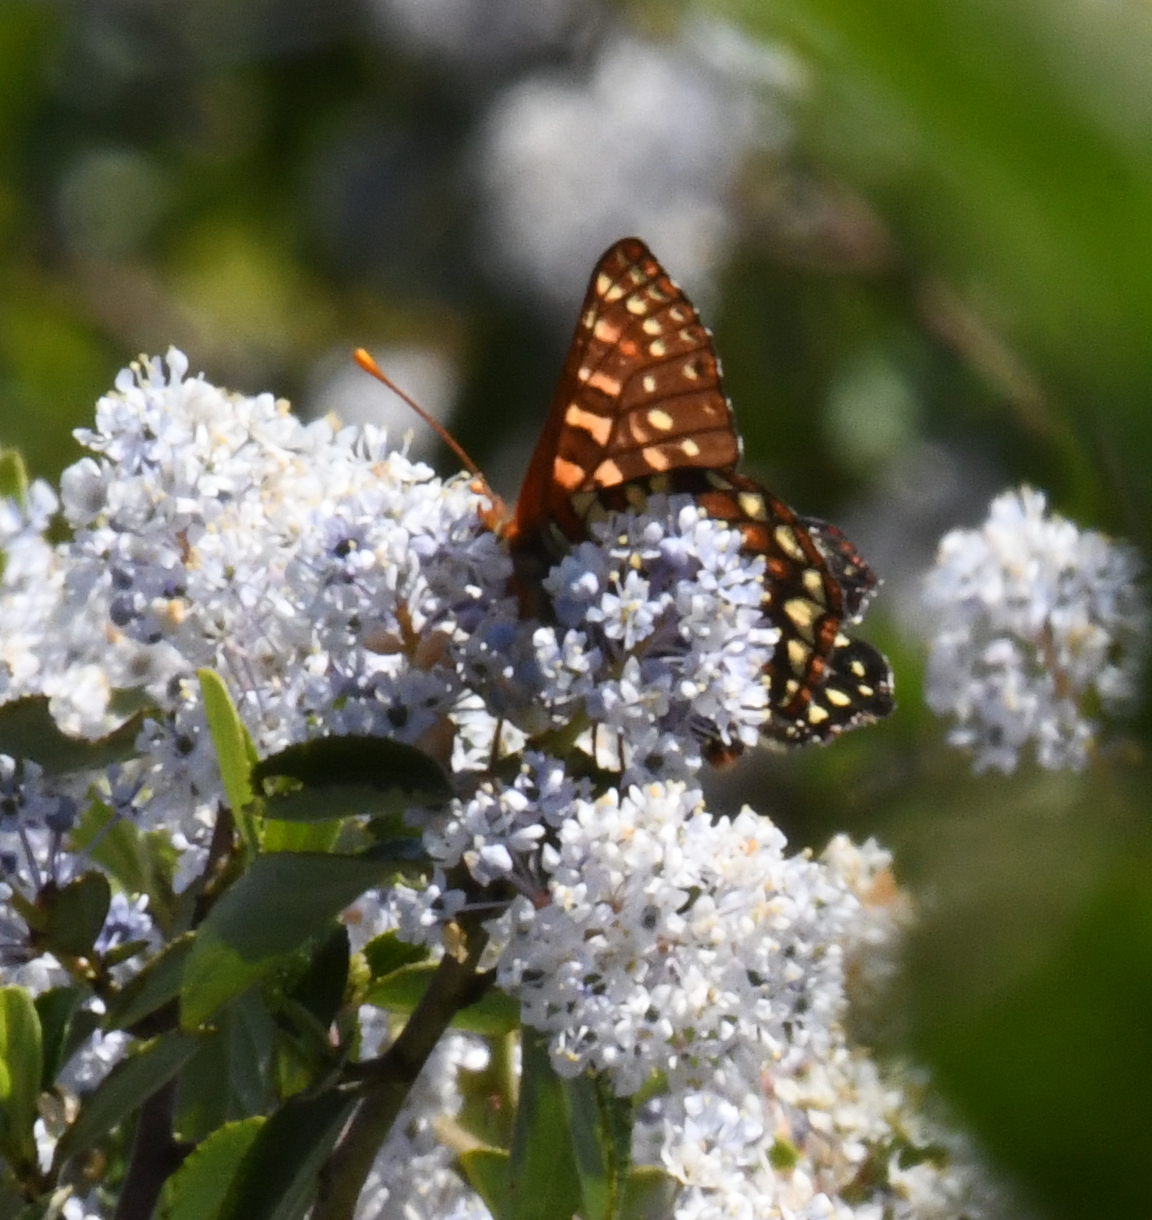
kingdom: Animalia
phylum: Arthropoda
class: Insecta
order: Lepidoptera
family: Nymphalidae
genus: Occidryas
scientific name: Occidryas chalcedona
